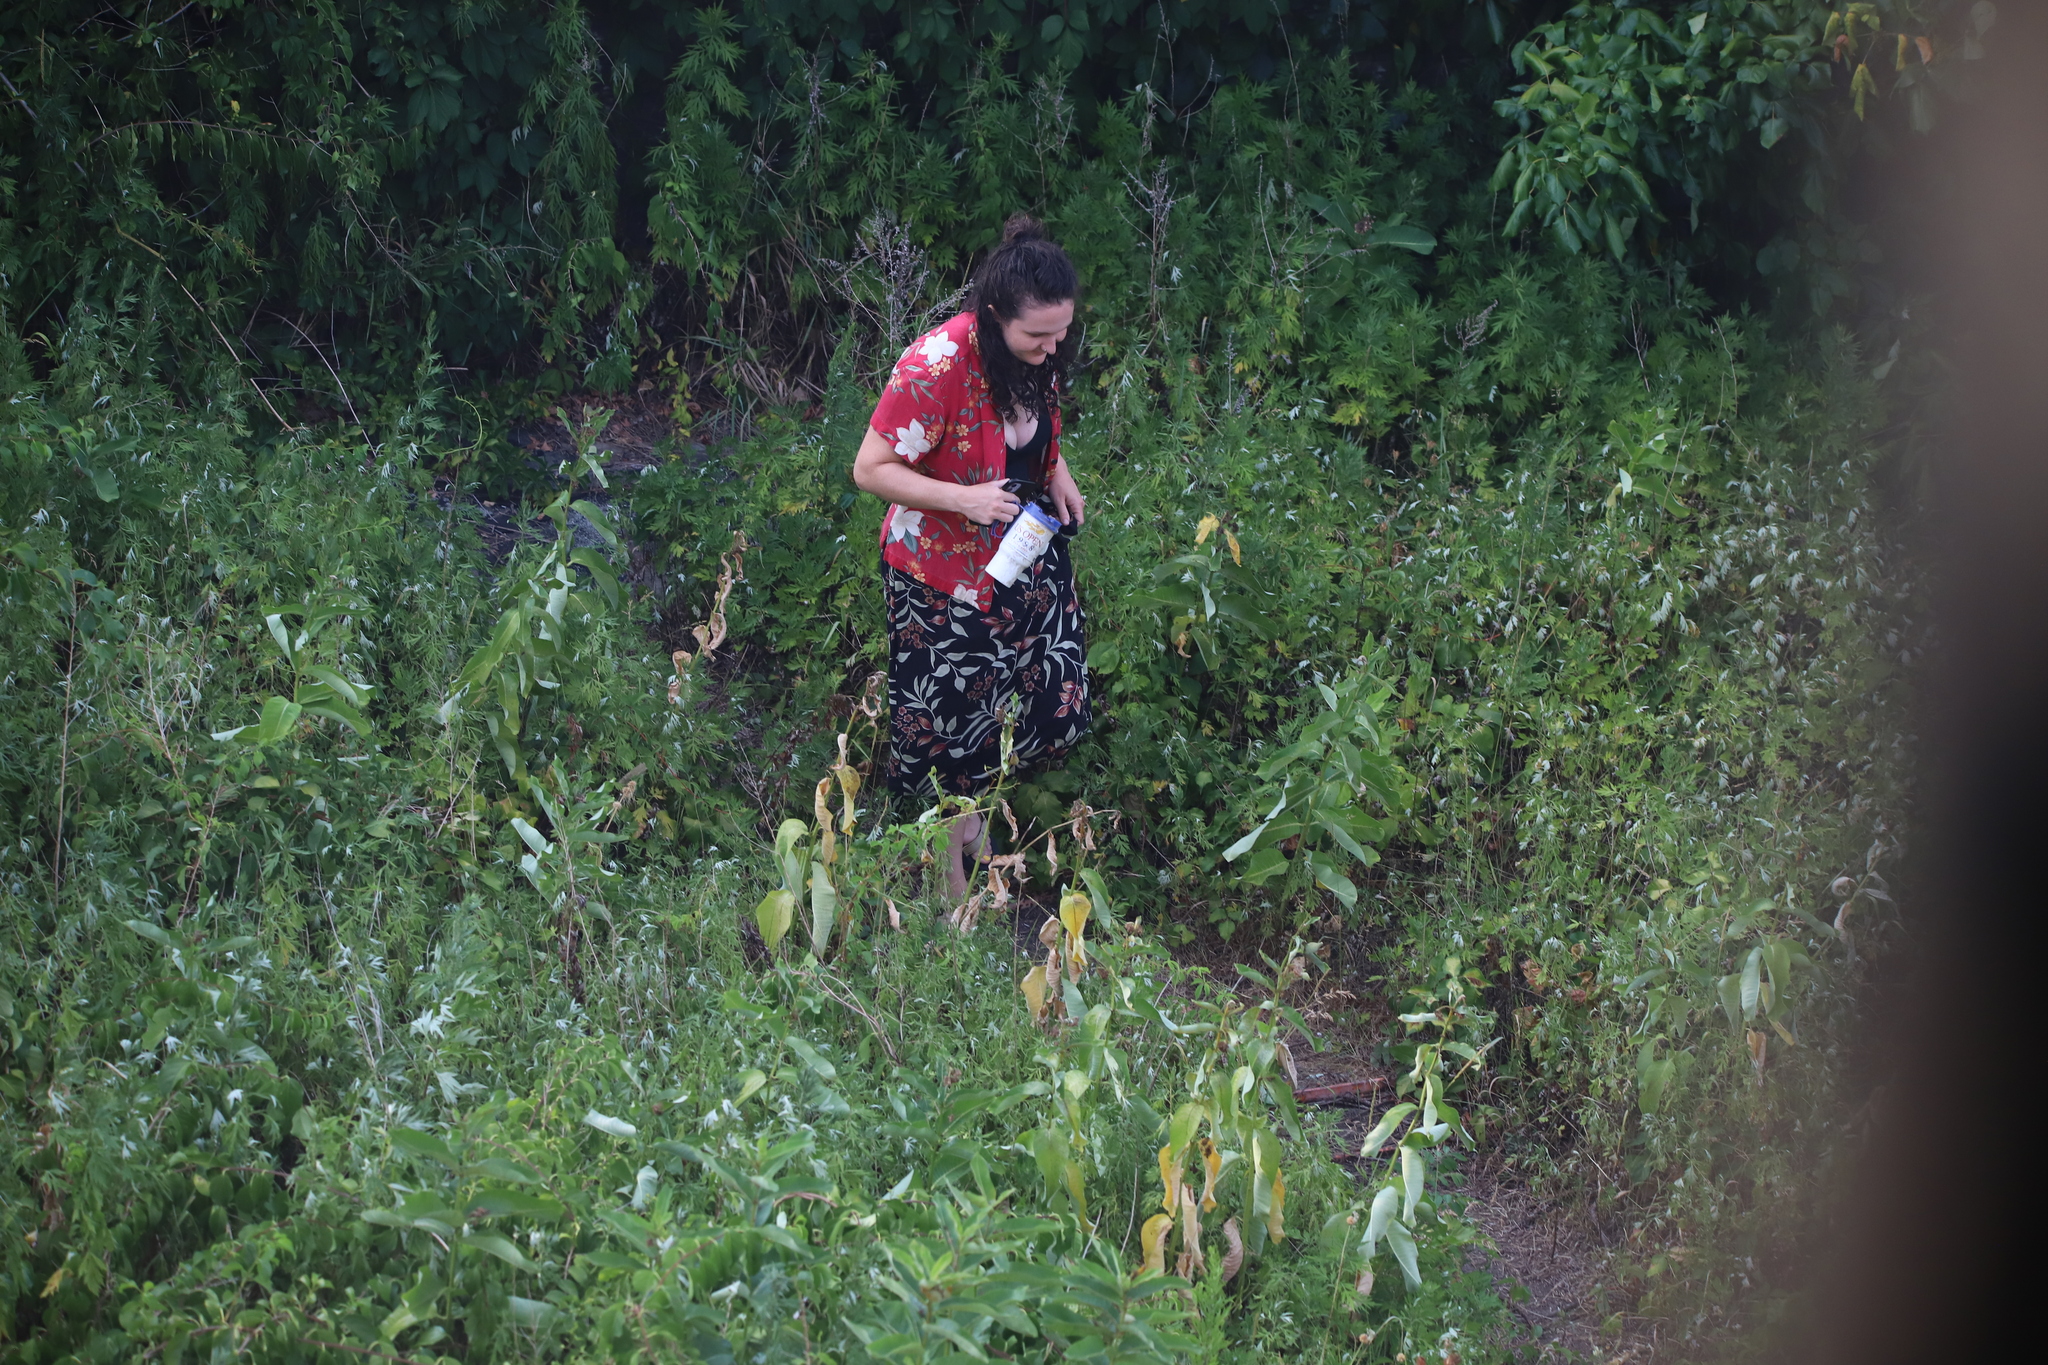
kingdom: Plantae
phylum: Tracheophyta
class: Magnoliopsida
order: Asterales
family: Asteraceae
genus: Artemisia
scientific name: Artemisia vulgaris
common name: Mugwort
